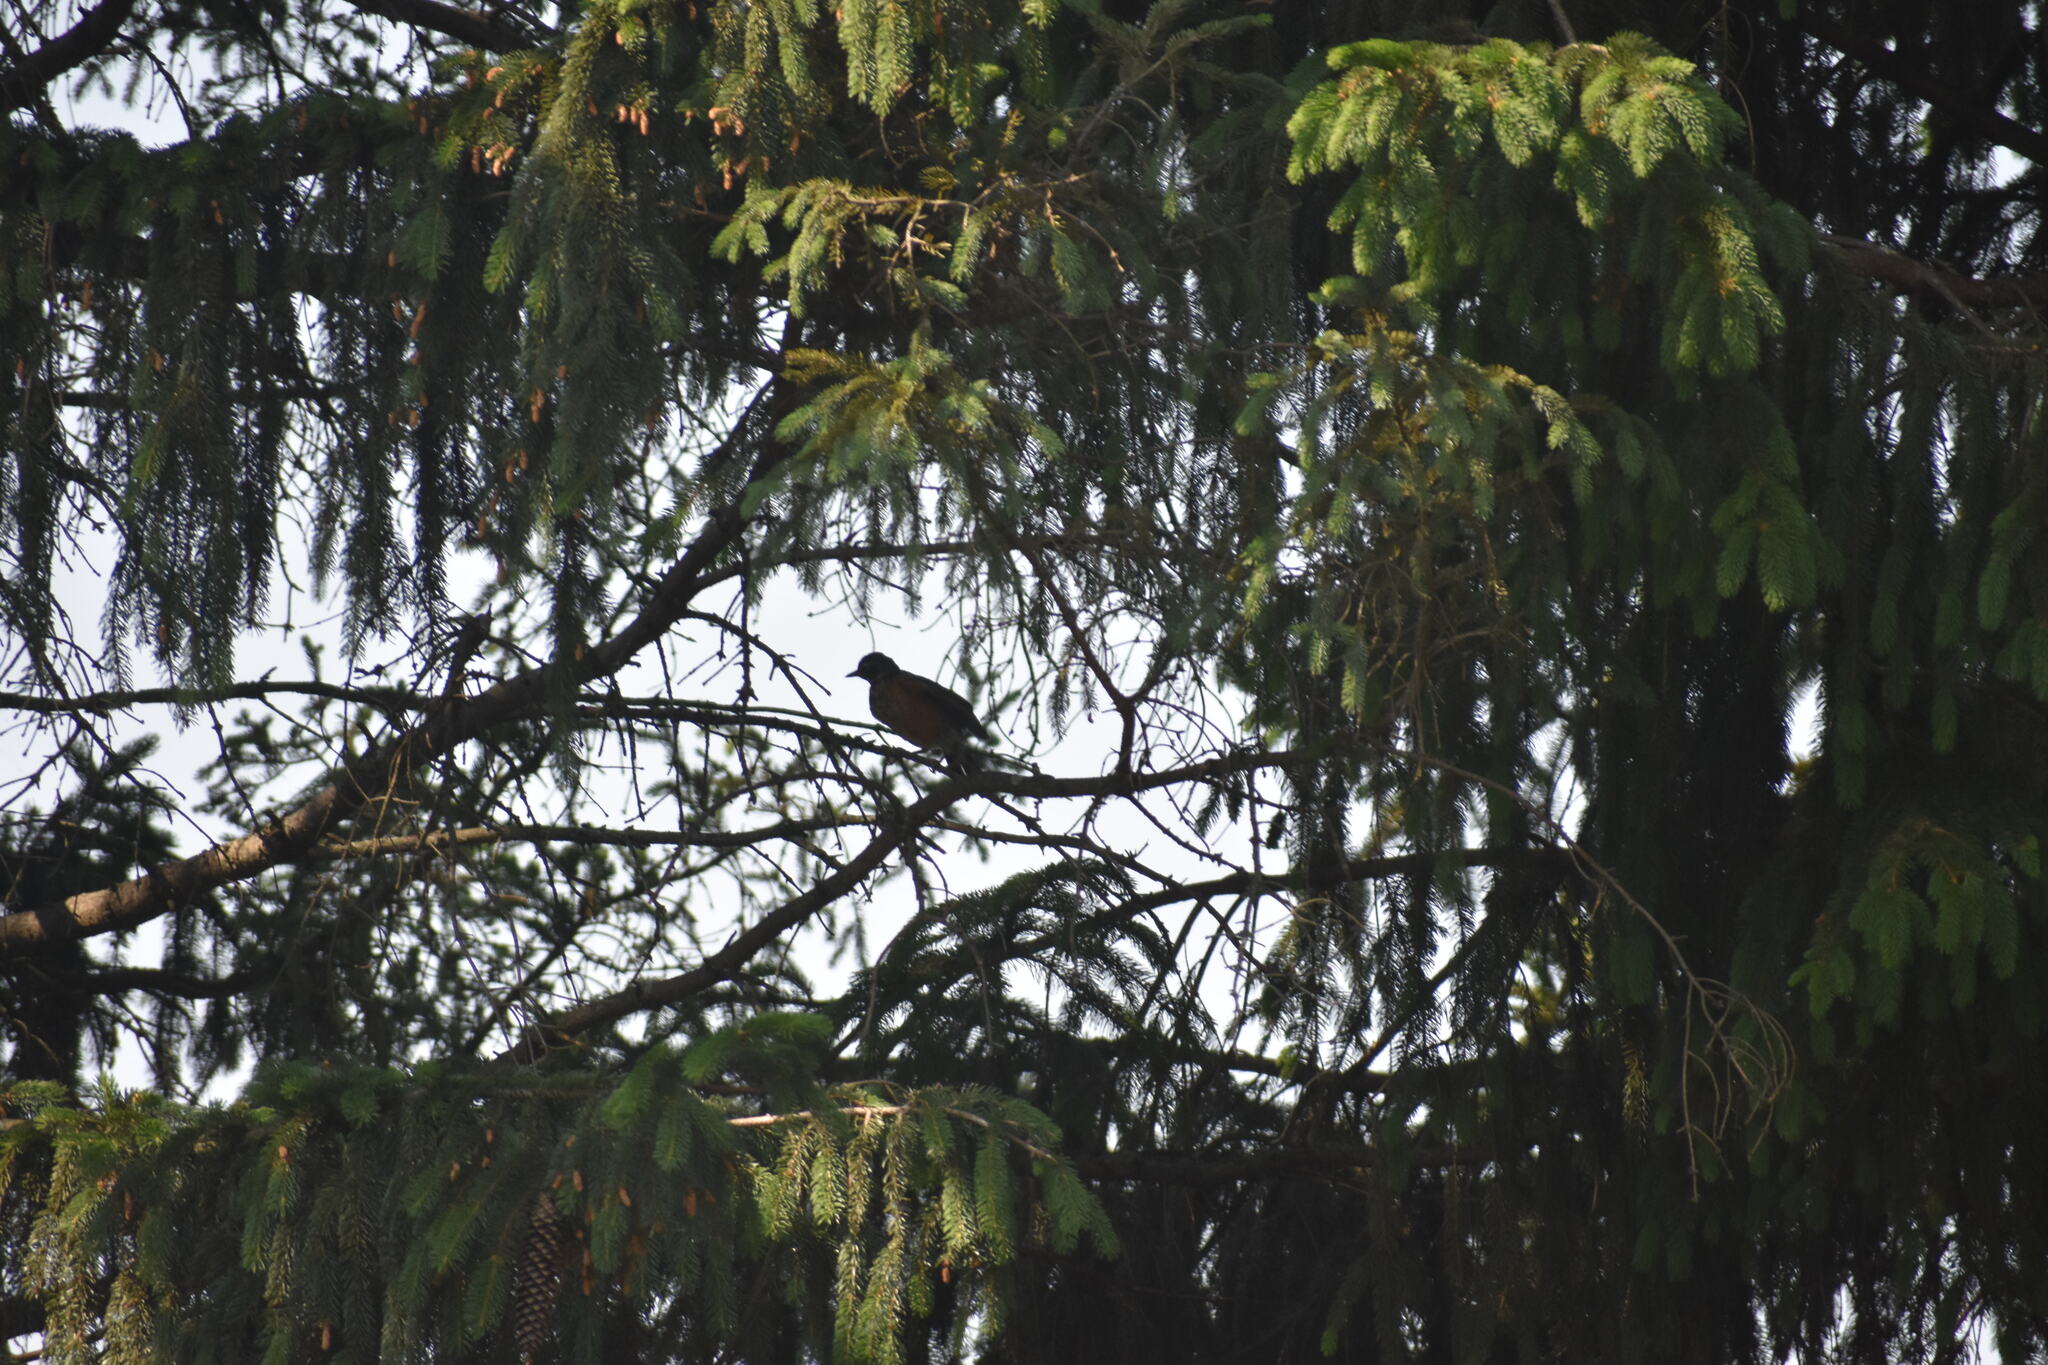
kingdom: Animalia
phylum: Chordata
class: Aves
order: Passeriformes
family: Turdidae
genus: Turdus
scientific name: Turdus migratorius
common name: American robin
